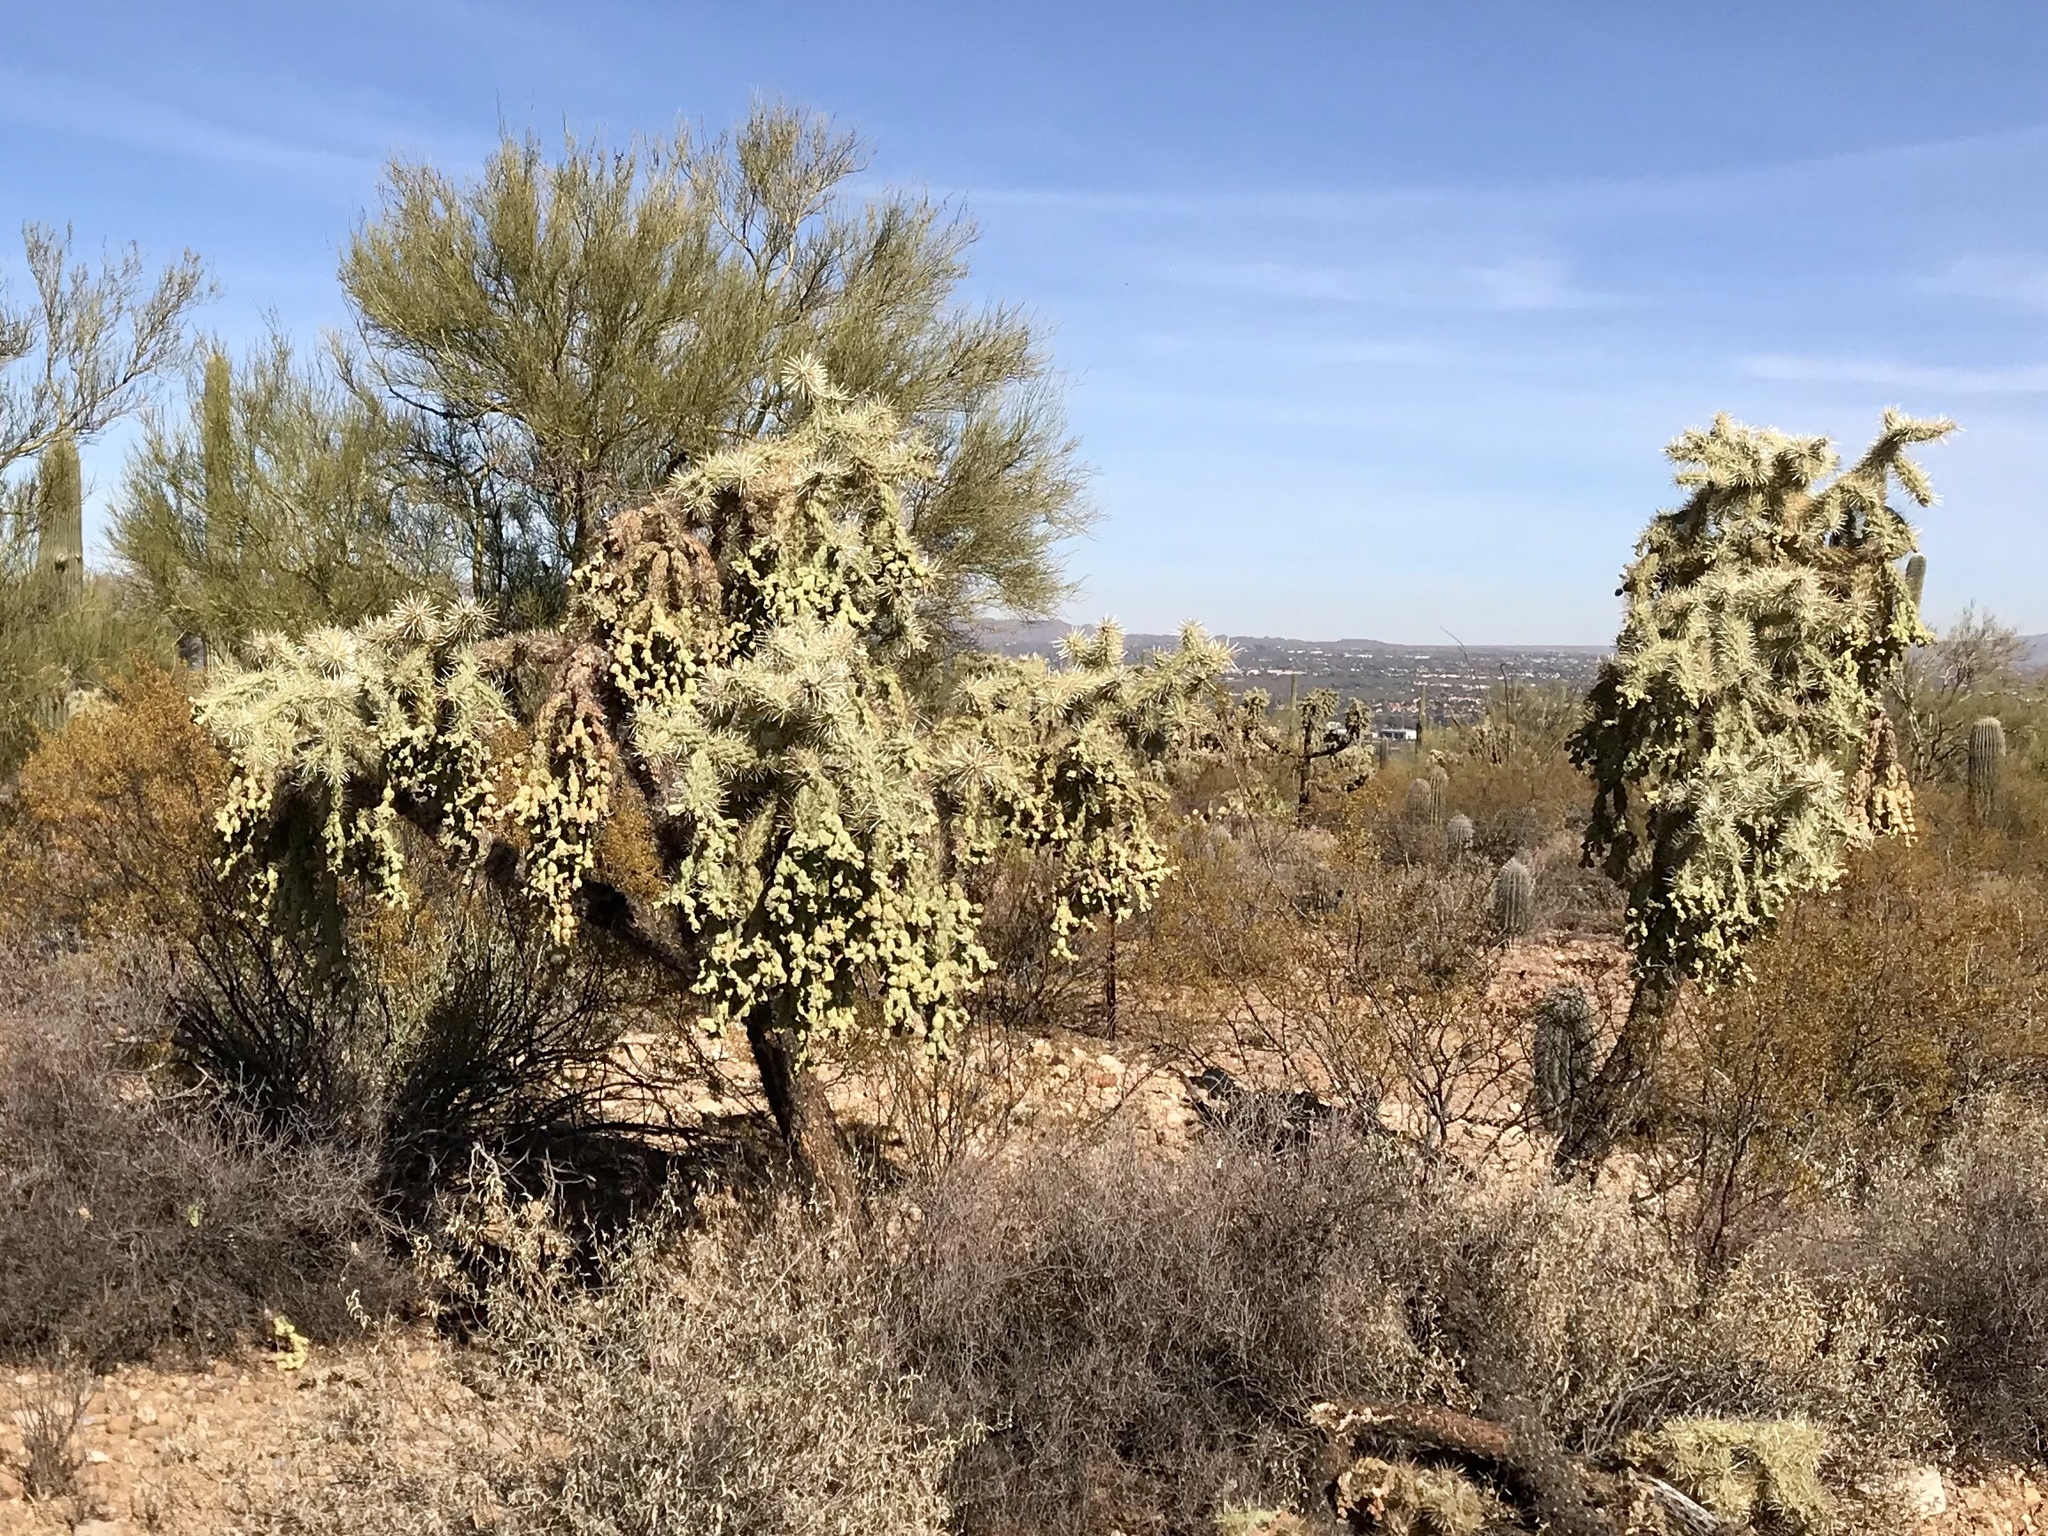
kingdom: Plantae
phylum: Tracheophyta
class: Magnoliopsida
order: Caryophyllales
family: Cactaceae
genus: Cylindropuntia
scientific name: Cylindropuntia fulgida
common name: Jumping cholla
